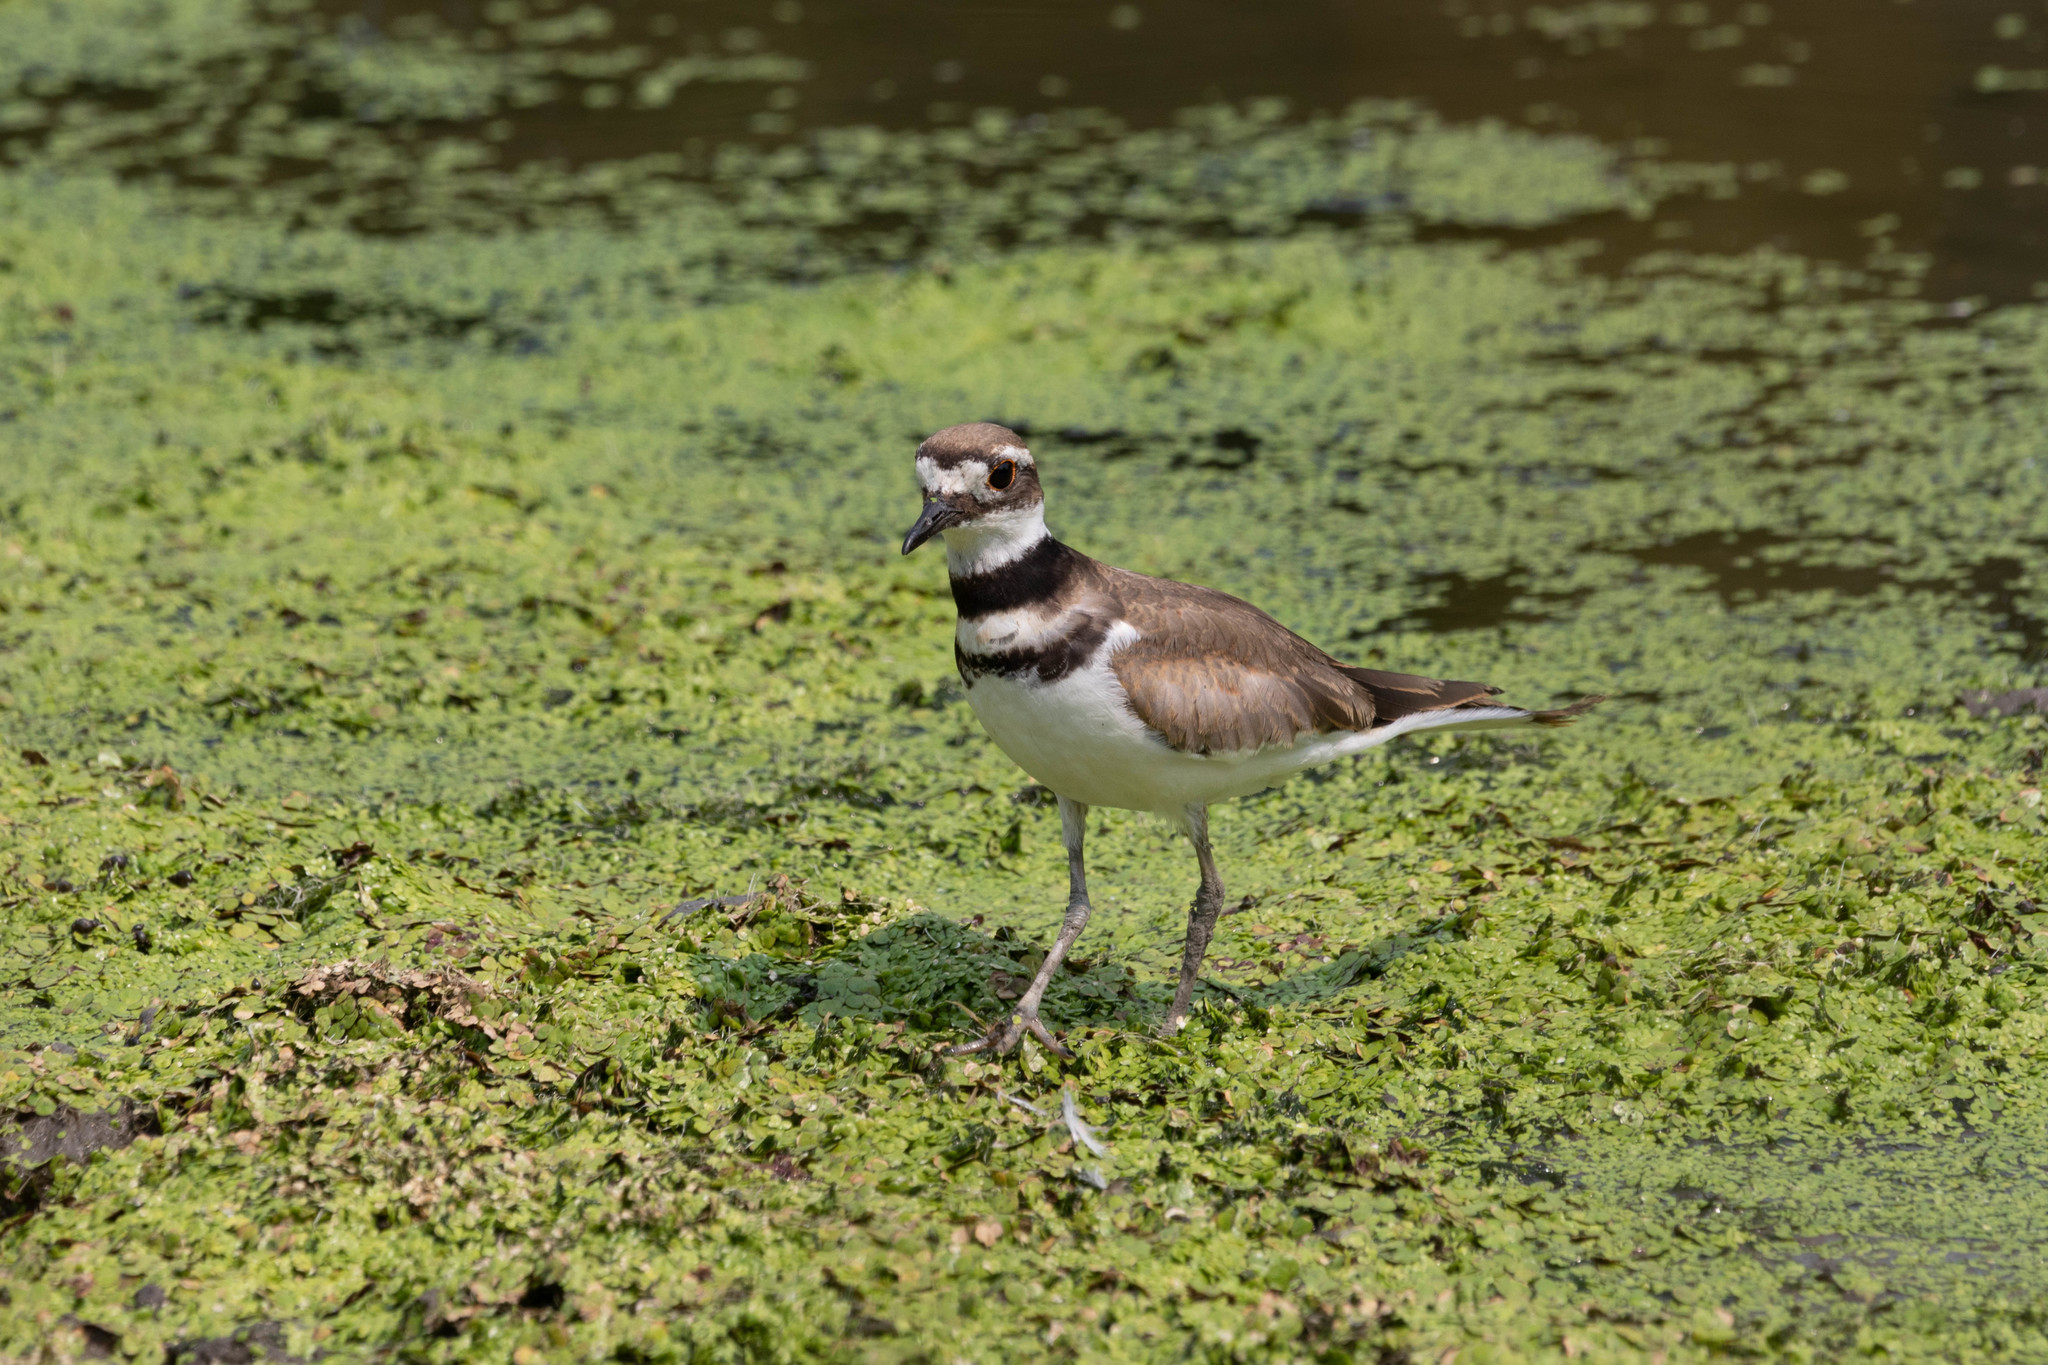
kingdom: Animalia
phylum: Chordata
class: Aves
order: Charadriiformes
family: Charadriidae
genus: Charadrius
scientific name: Charadrius vociferus
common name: Killdeer
